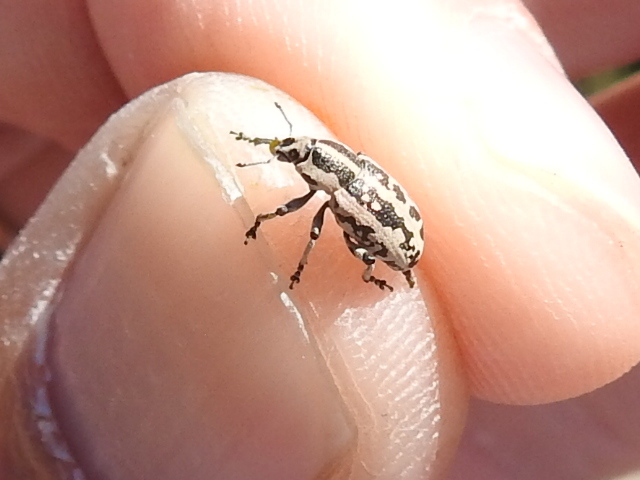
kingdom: Animalia
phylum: Arthropoda
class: Insecta
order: Coleoptera
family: Curculionidae
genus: Eudiagogus
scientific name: Eudiagogus rosenschoeldi
